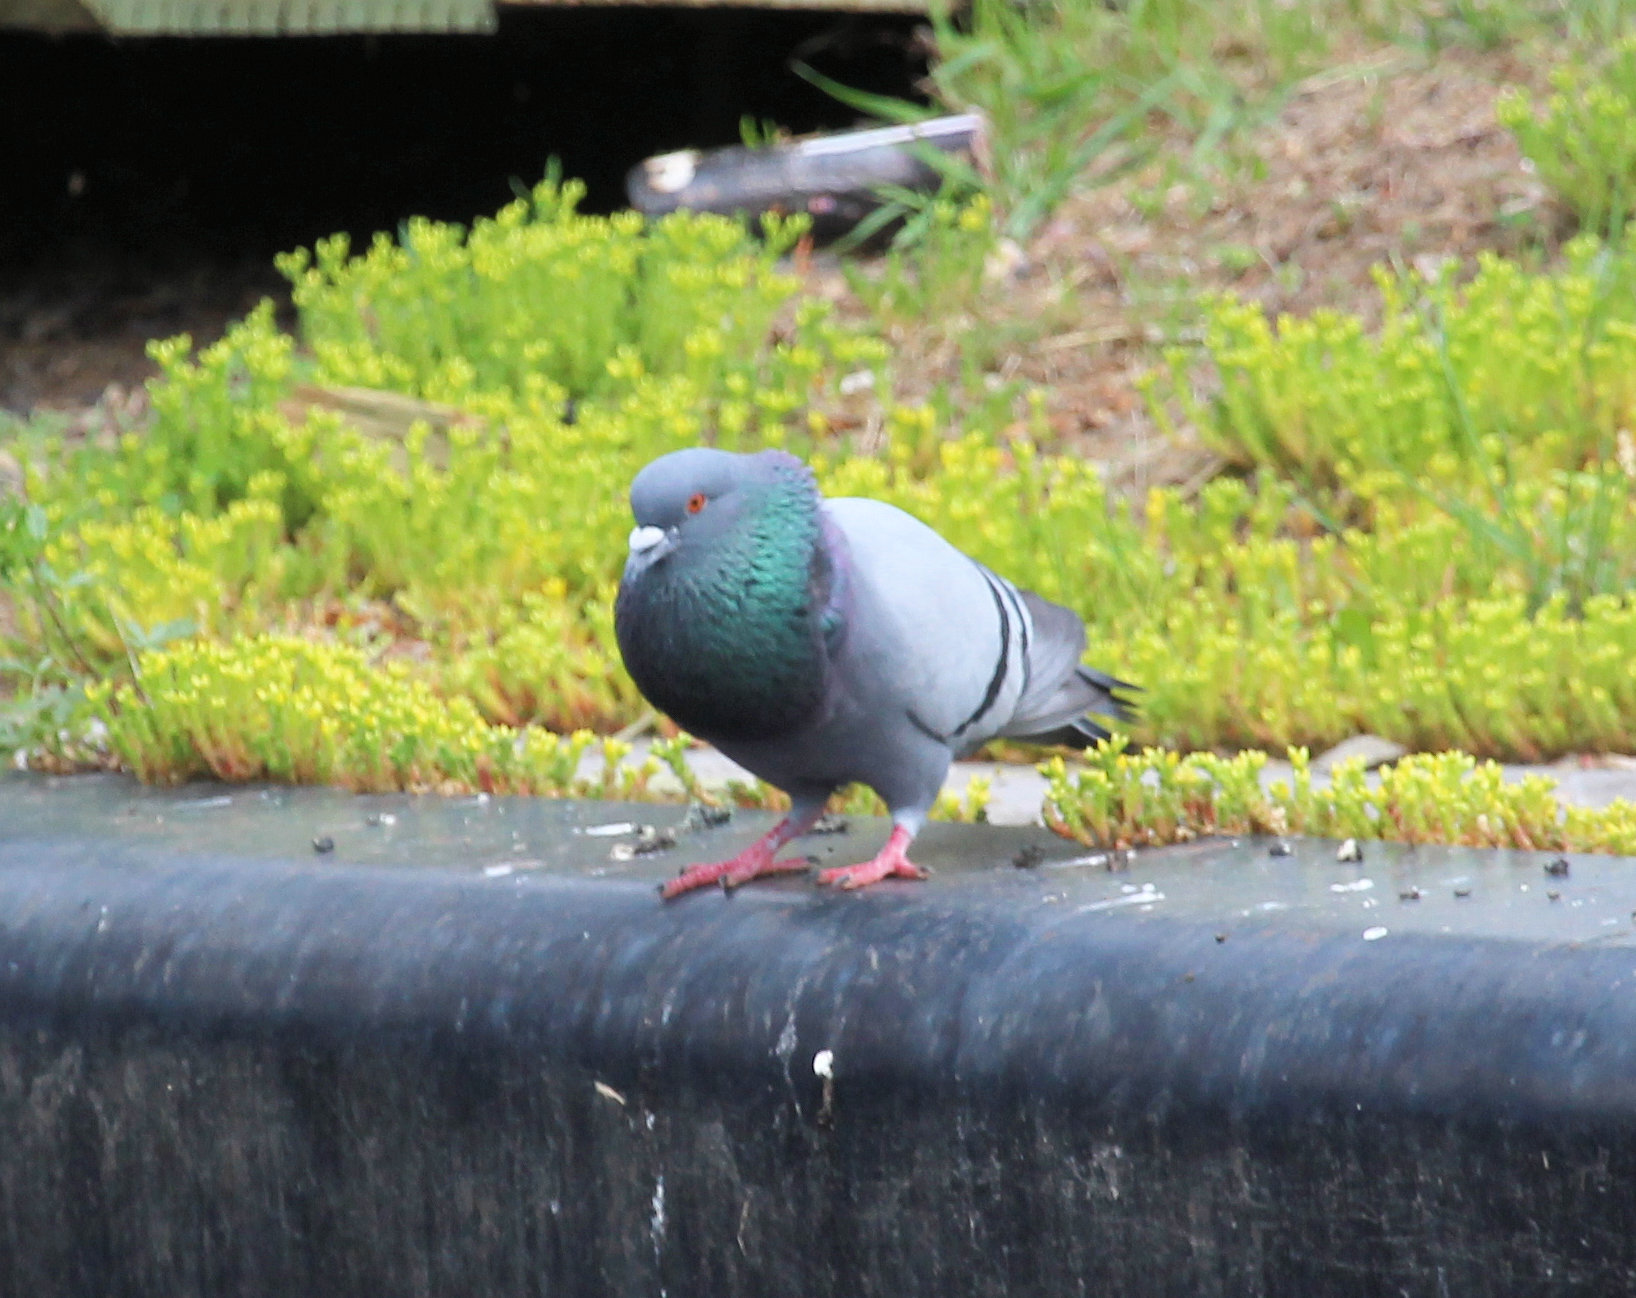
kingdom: Animalia
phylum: Chordata
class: Aves
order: Columbiformes
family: Columbidae
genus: Columba
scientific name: Columba livia
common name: Rock pigeon
